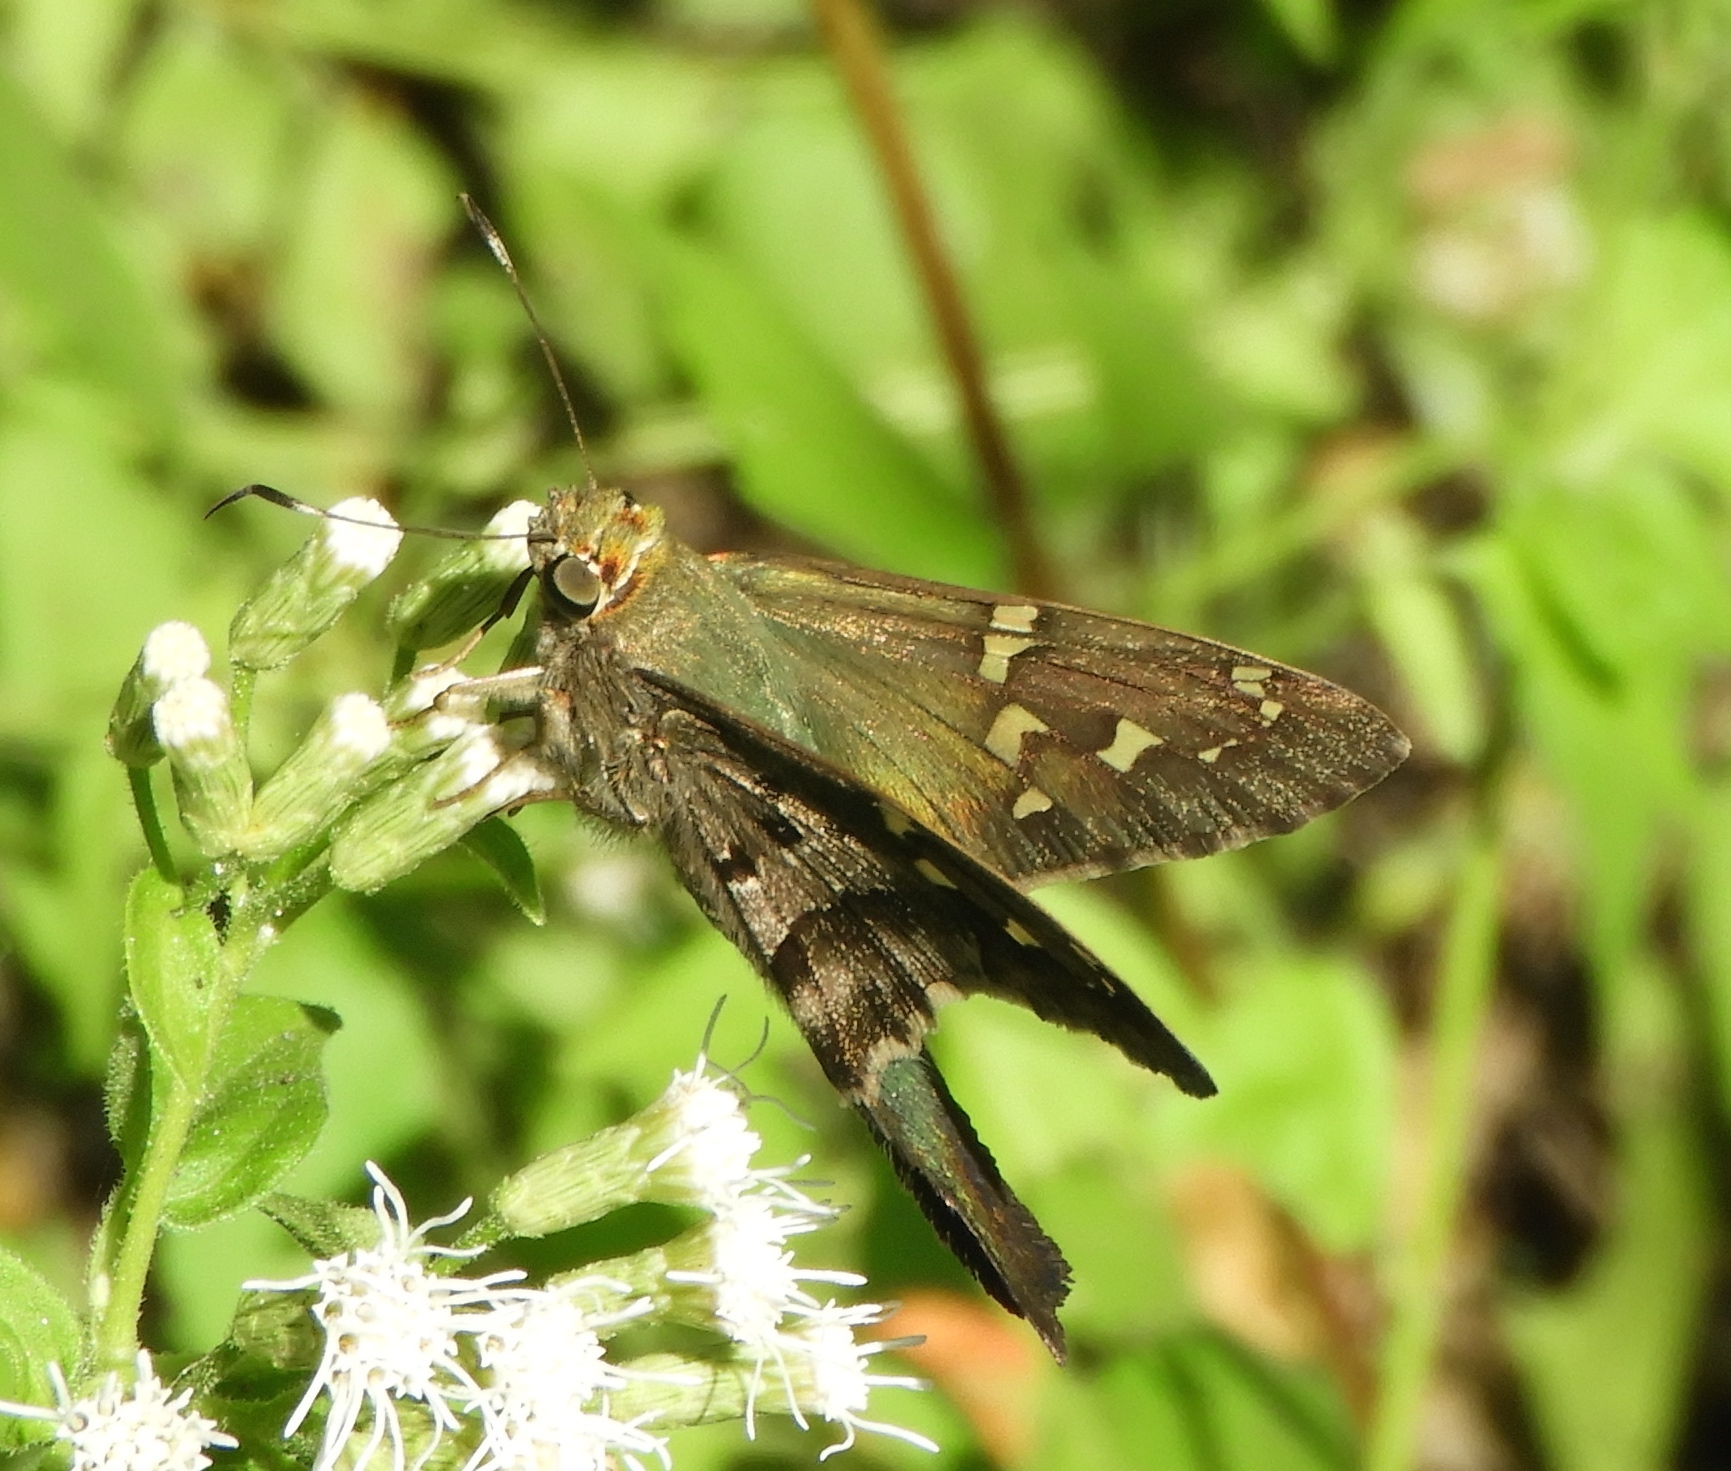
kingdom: Animalia
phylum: Arthropoda
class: Insecta
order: Lepidoptera
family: Hesperiidae
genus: Urbanus
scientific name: Urbanus proteus
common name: Long-tailed skipper
